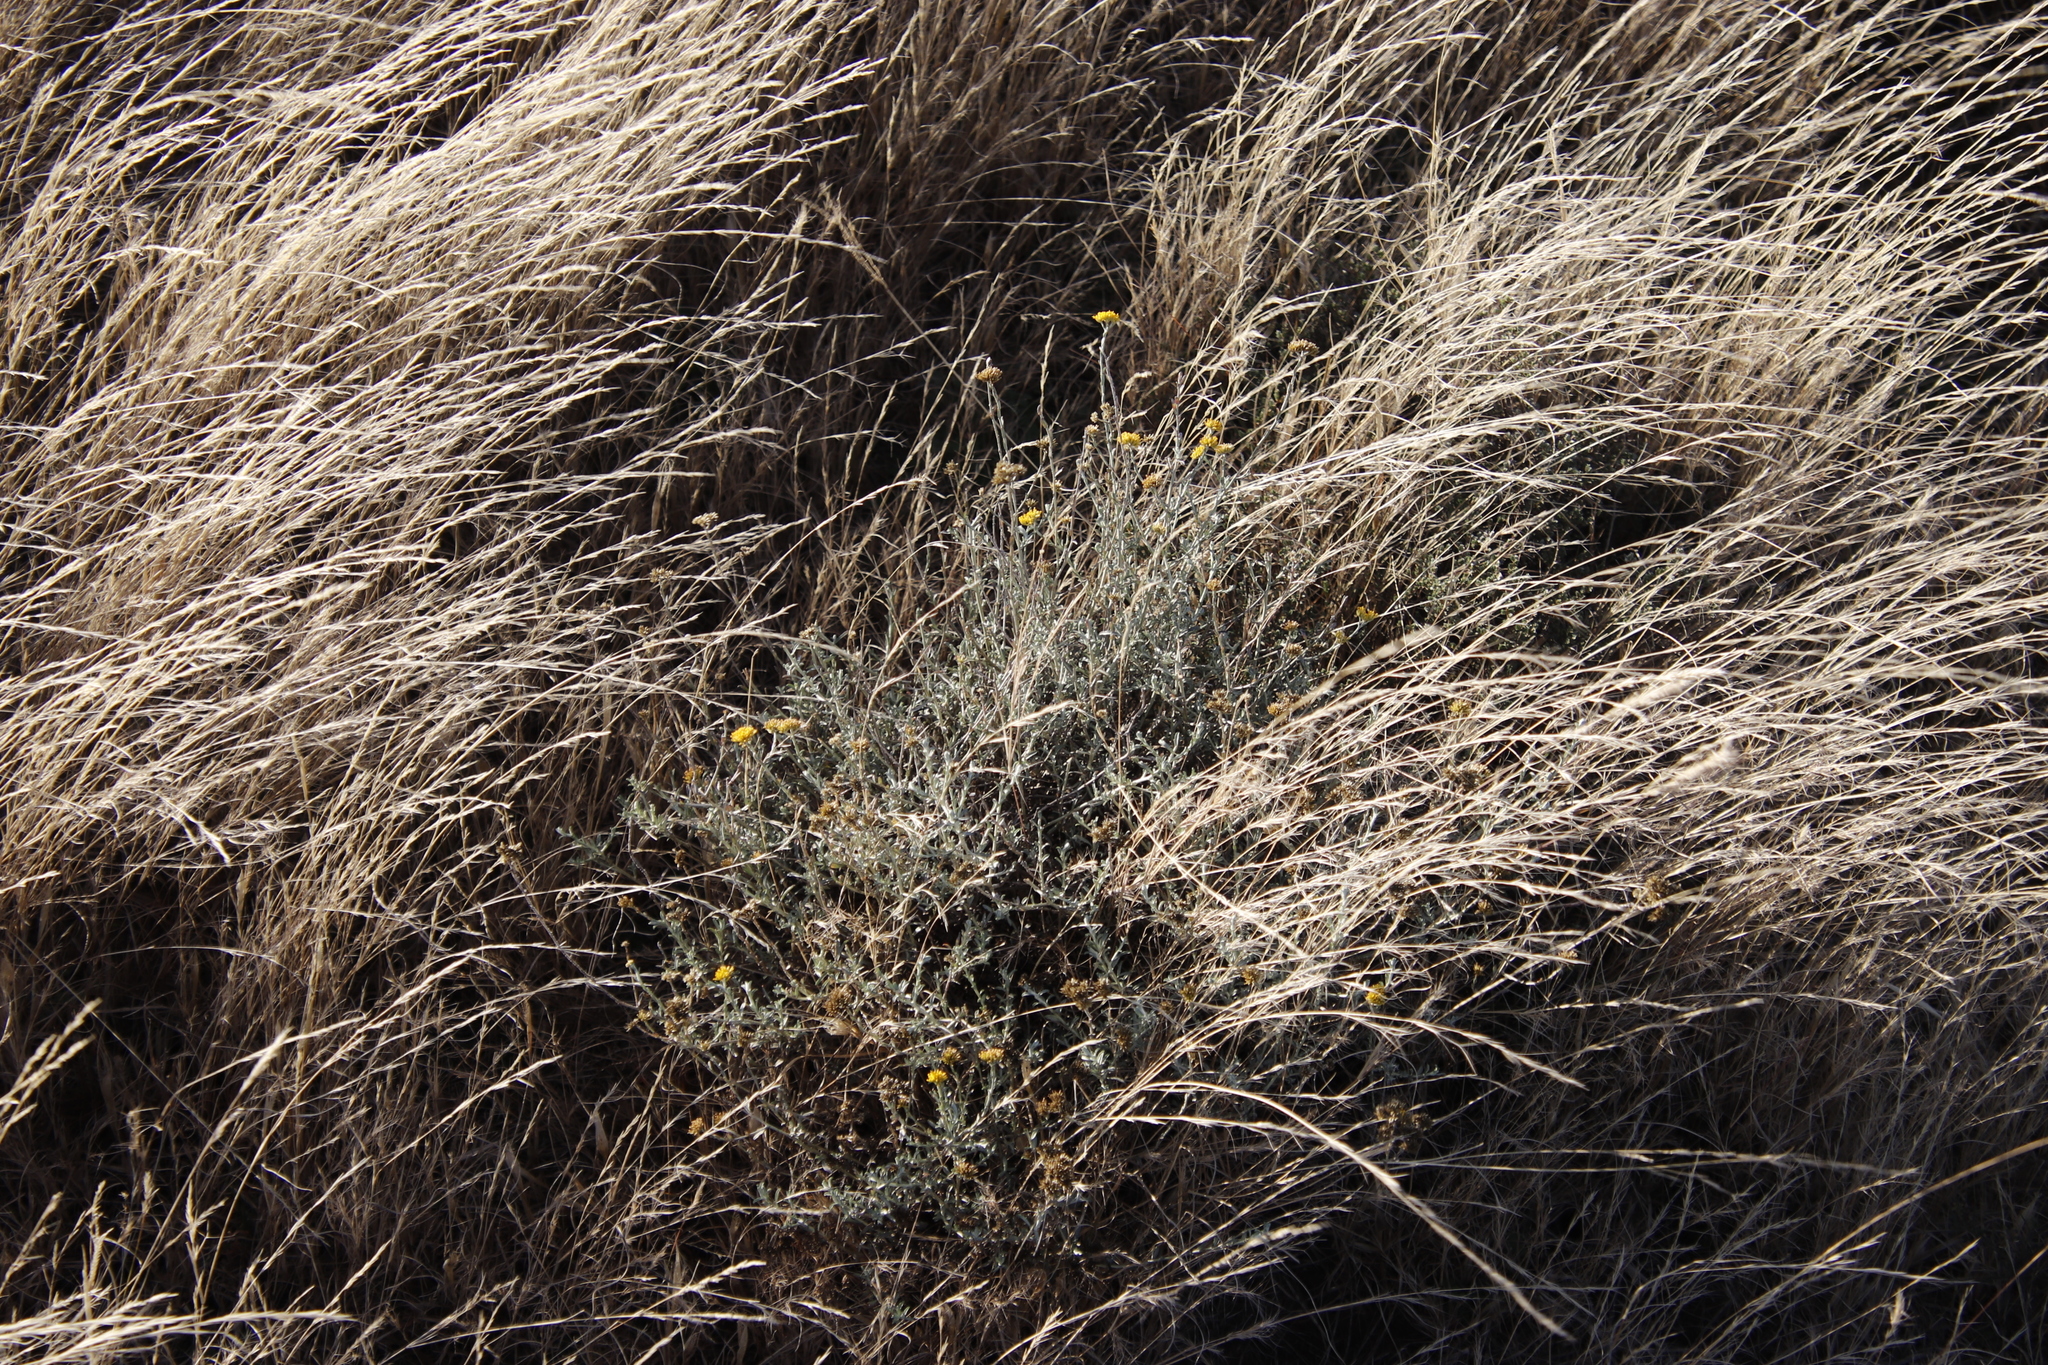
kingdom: Plantae
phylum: Tracheophyta
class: Magnoliopsida
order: Asterales
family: Asteraceae
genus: Helichrysum
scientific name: Helichrysum rutilans
